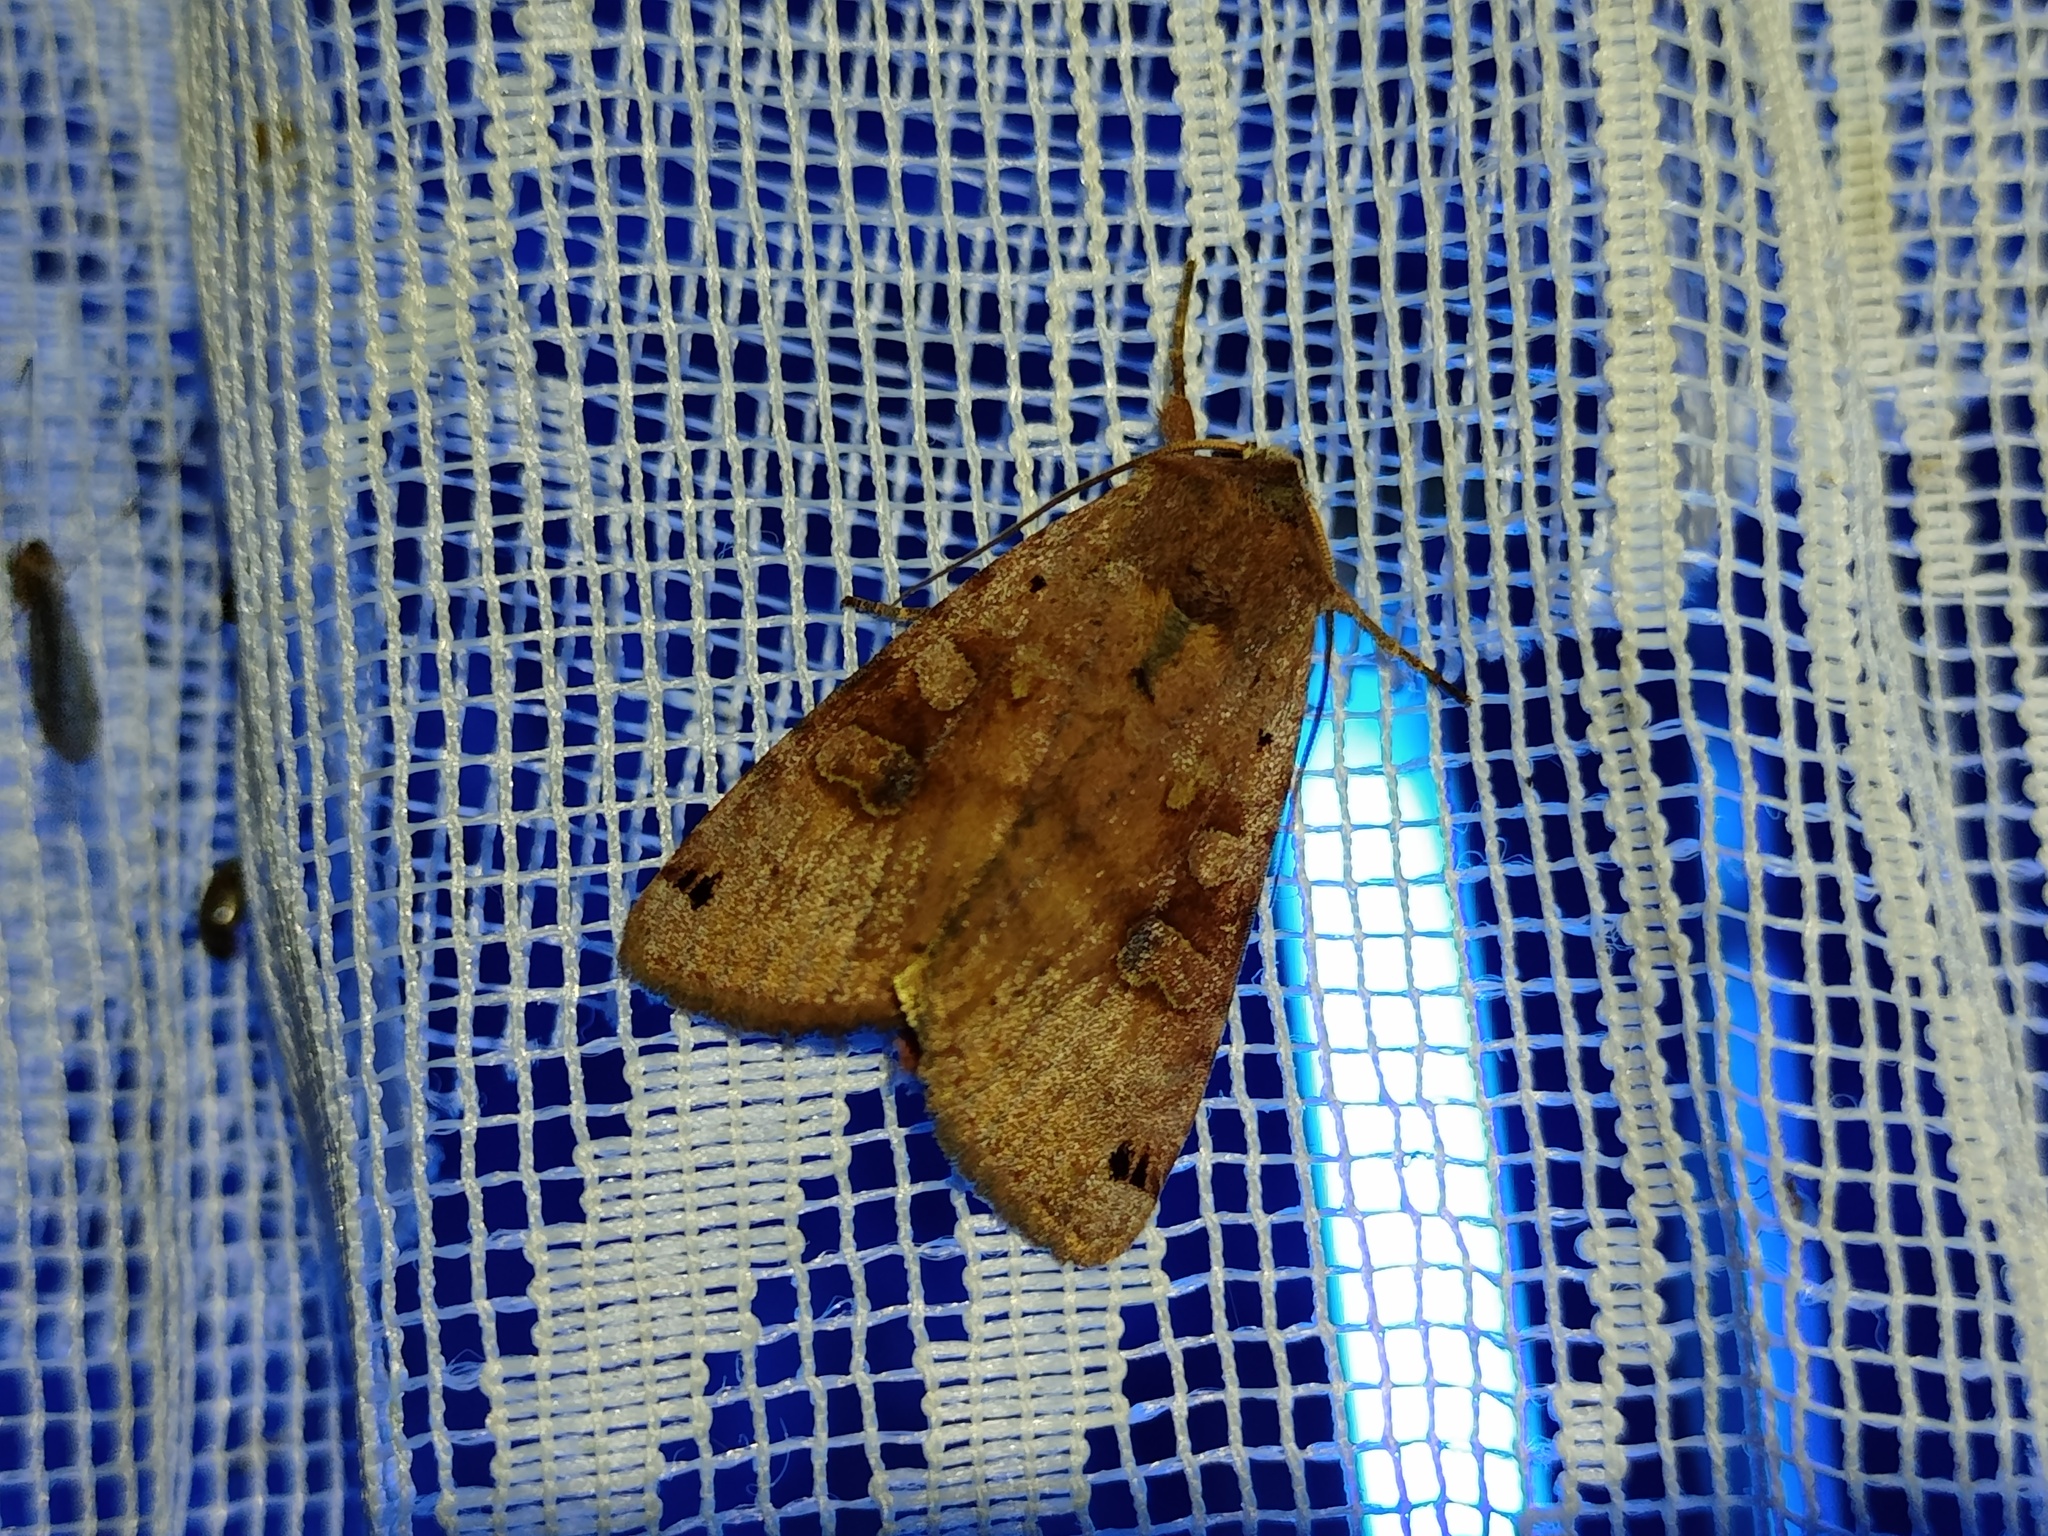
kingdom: Animalia
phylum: Arthropoda
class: Insecta
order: Lepidoptera
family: Noctuidae
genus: Xestia
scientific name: Xestia baja
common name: Dotted clay
